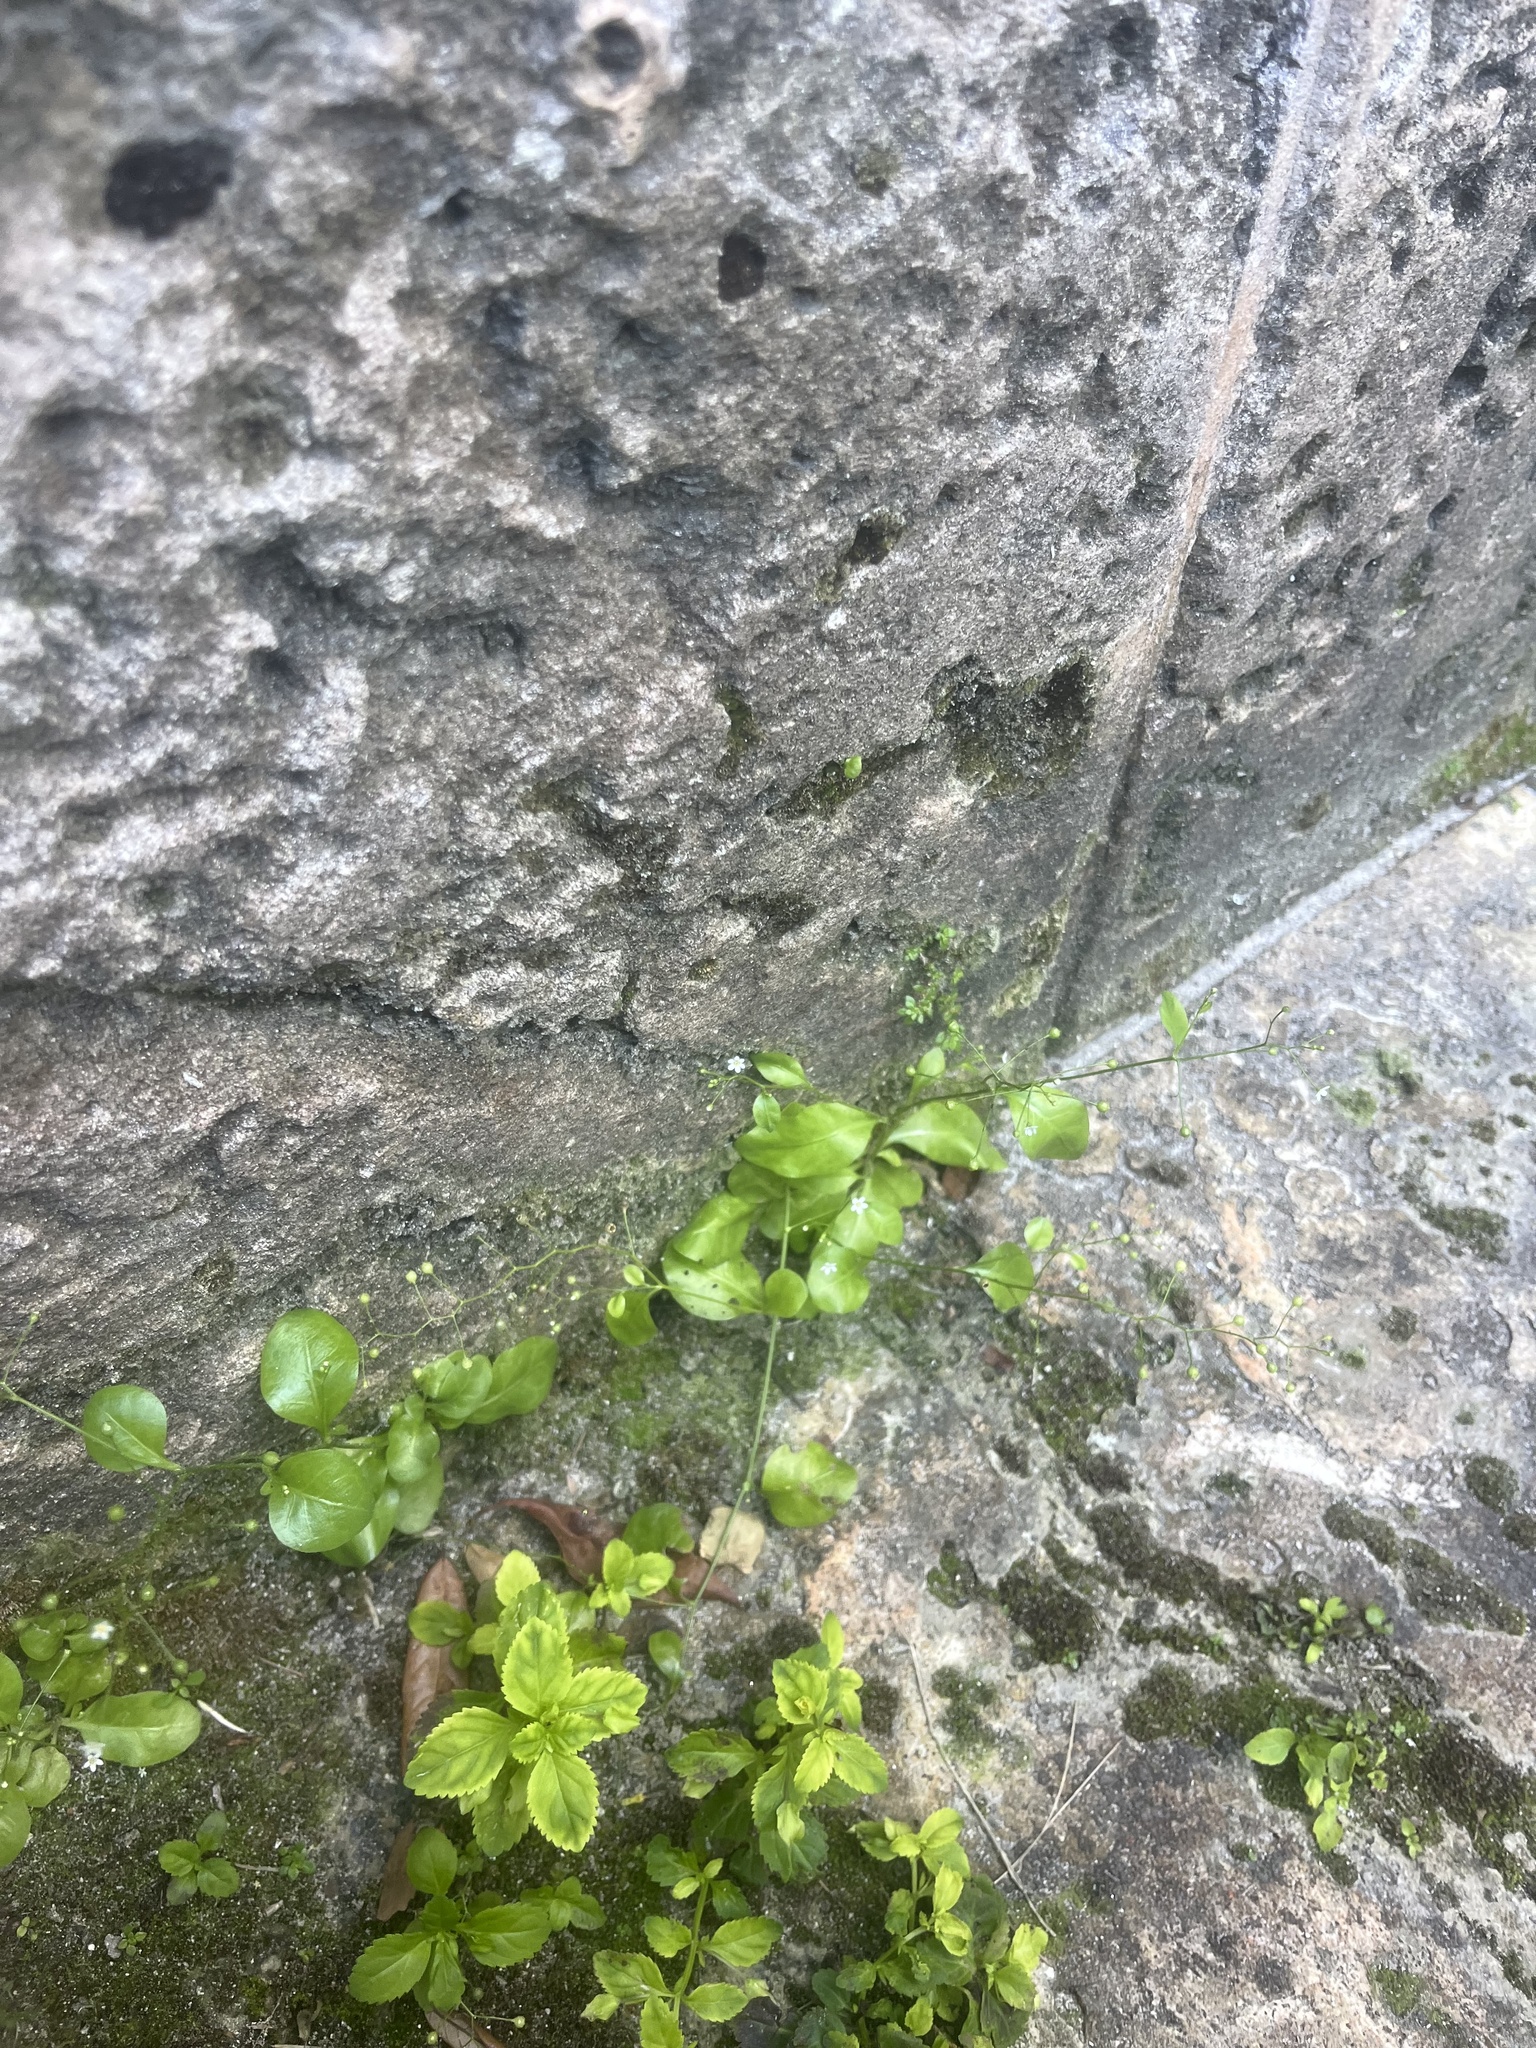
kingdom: Plantae
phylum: Tracheophyta
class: Magnoliopsida
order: Ericales
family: Primulaceae
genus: Samolus
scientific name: Samolus parviflorus
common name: False water pimpernel
